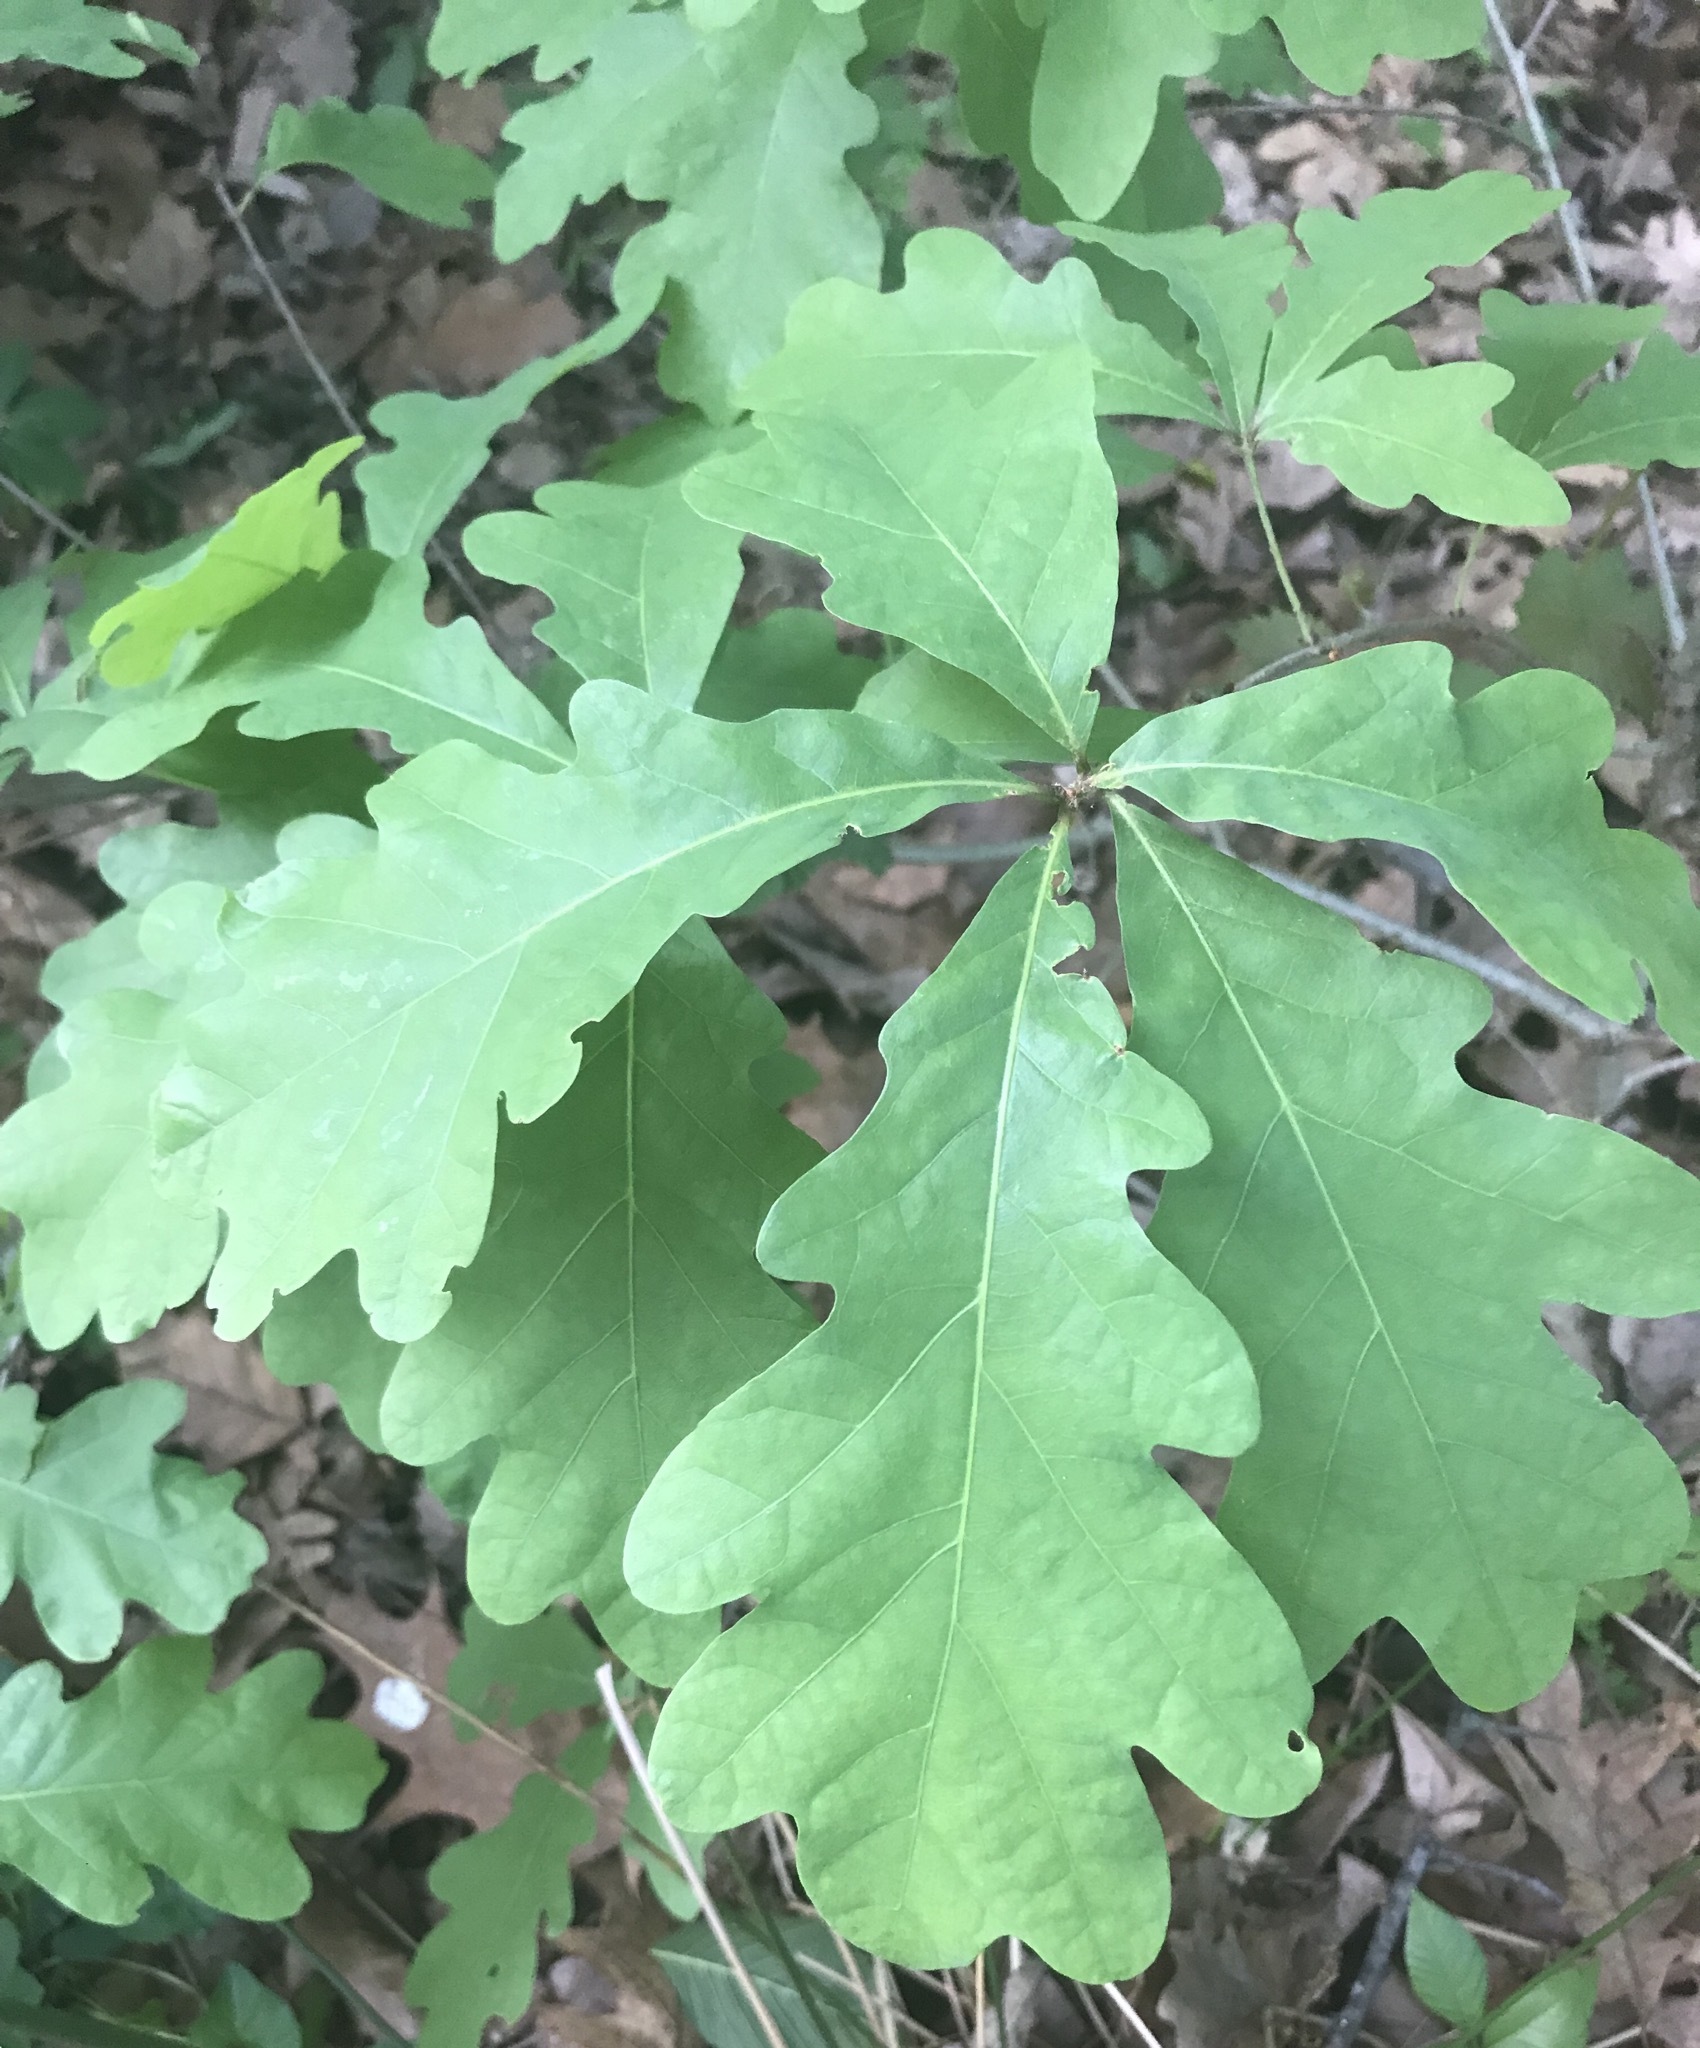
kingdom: Plantae
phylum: Tracheophyta
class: Magnoliopsida
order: Fagales
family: Fagaceae
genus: Quercus
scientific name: Quercus alba
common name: White oak
